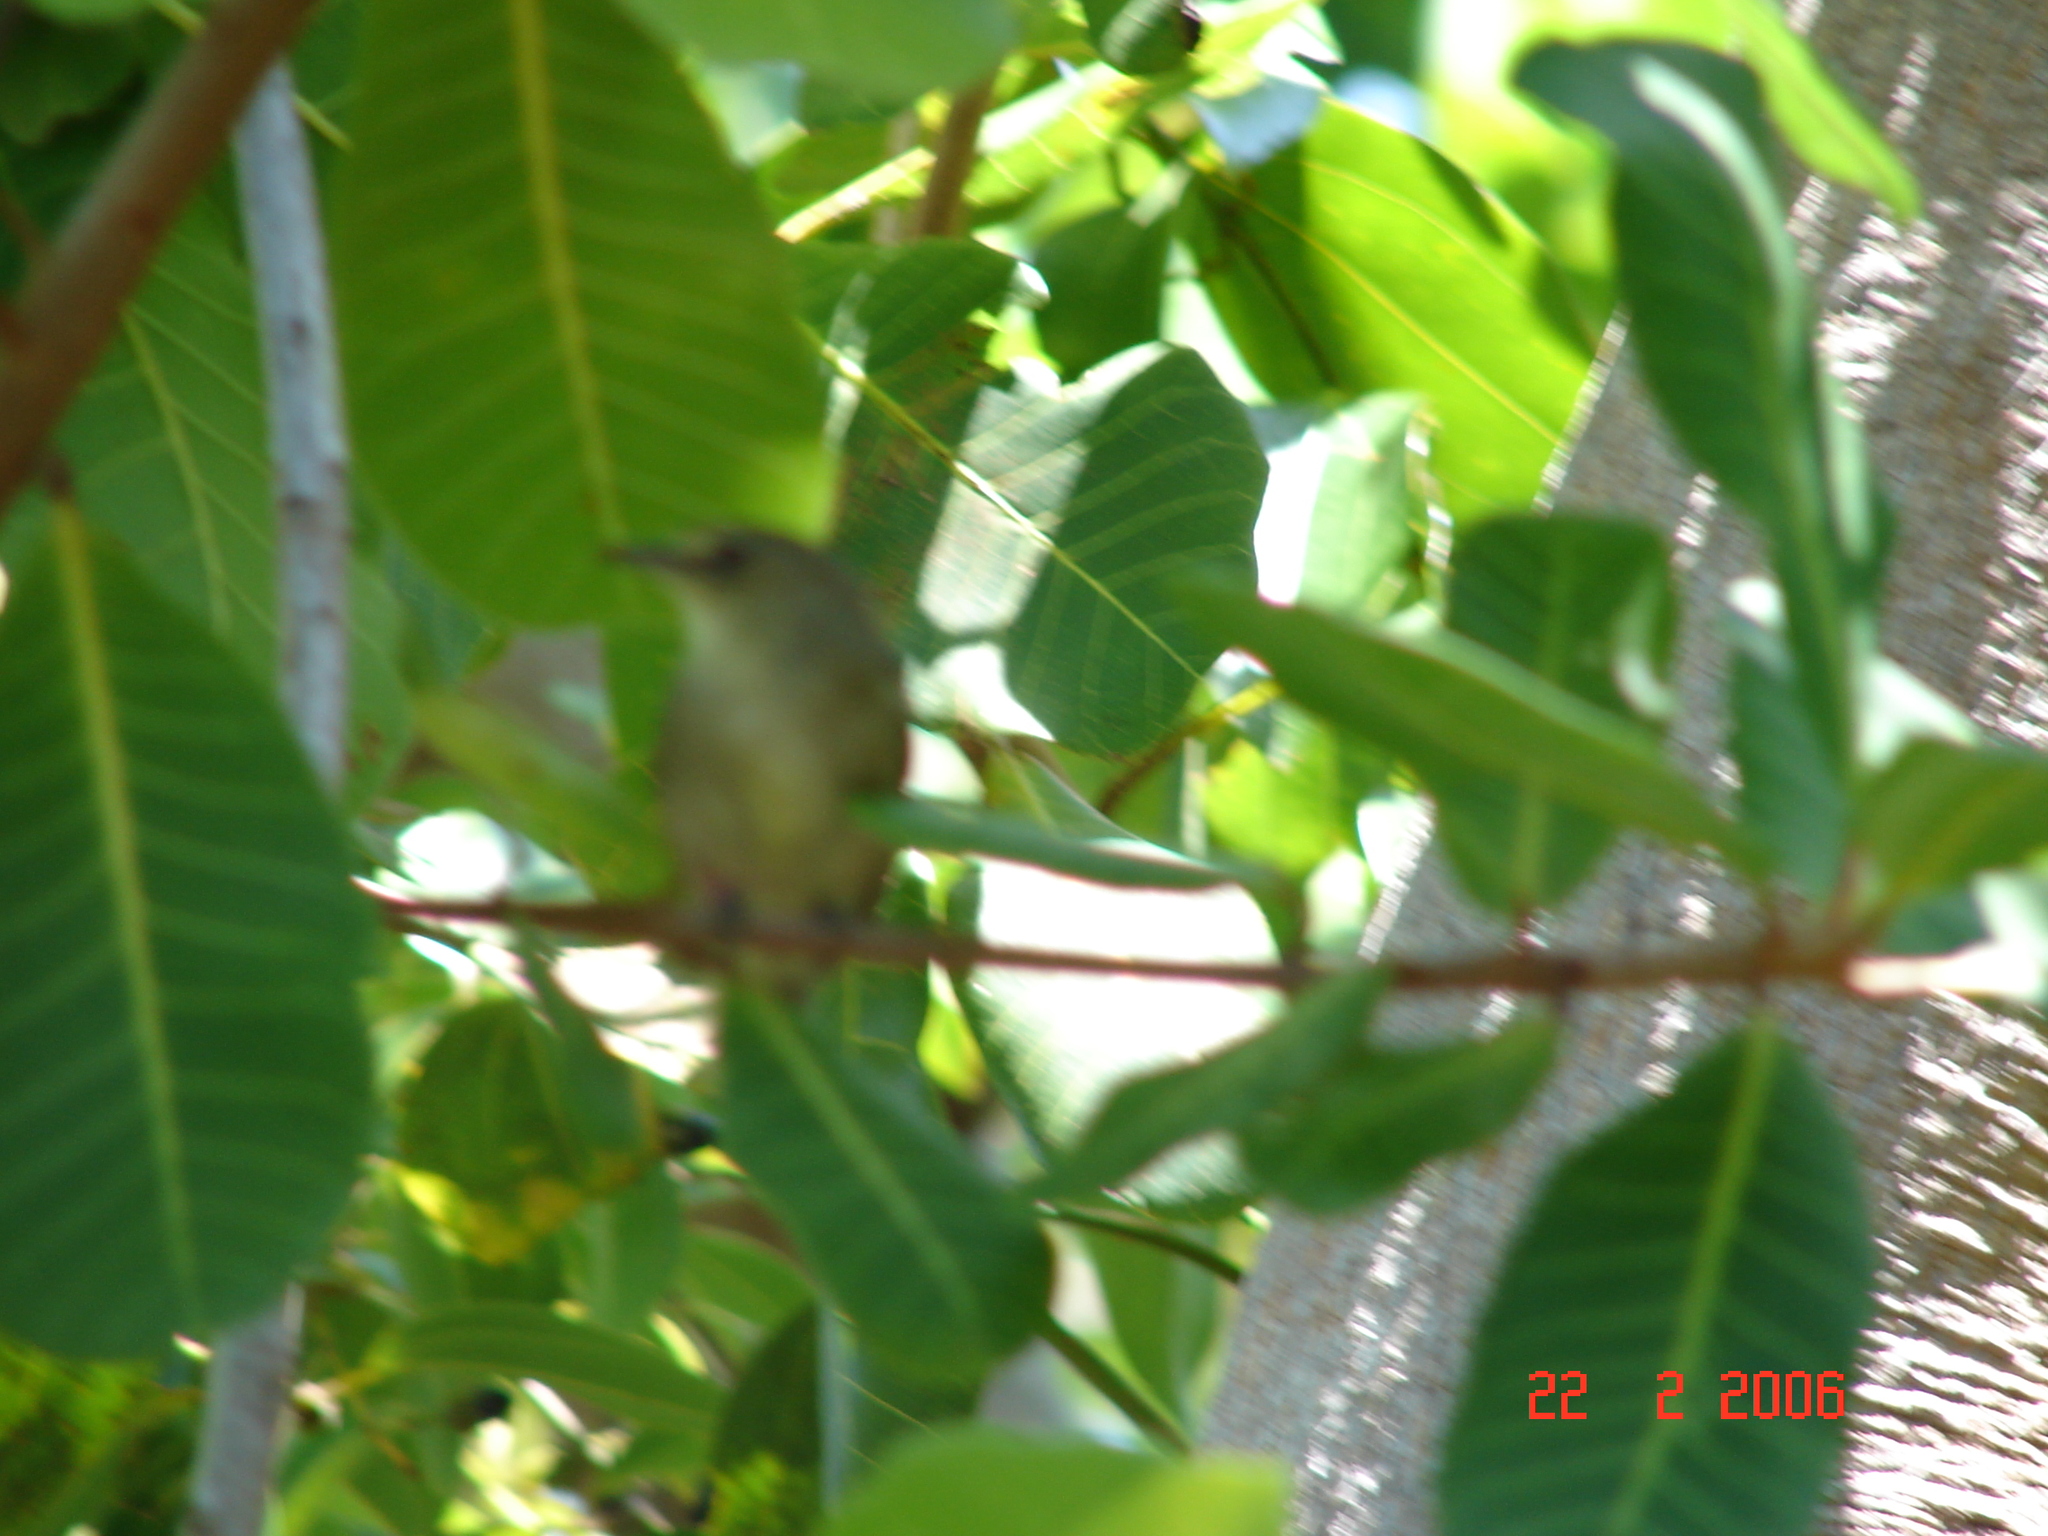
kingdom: Animalia
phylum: Chordata
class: Aves
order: Passeriformes
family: Acrocephalidae
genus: Acrocephalus
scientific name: Acrocephalus sechellensis
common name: Seychelles warbler
